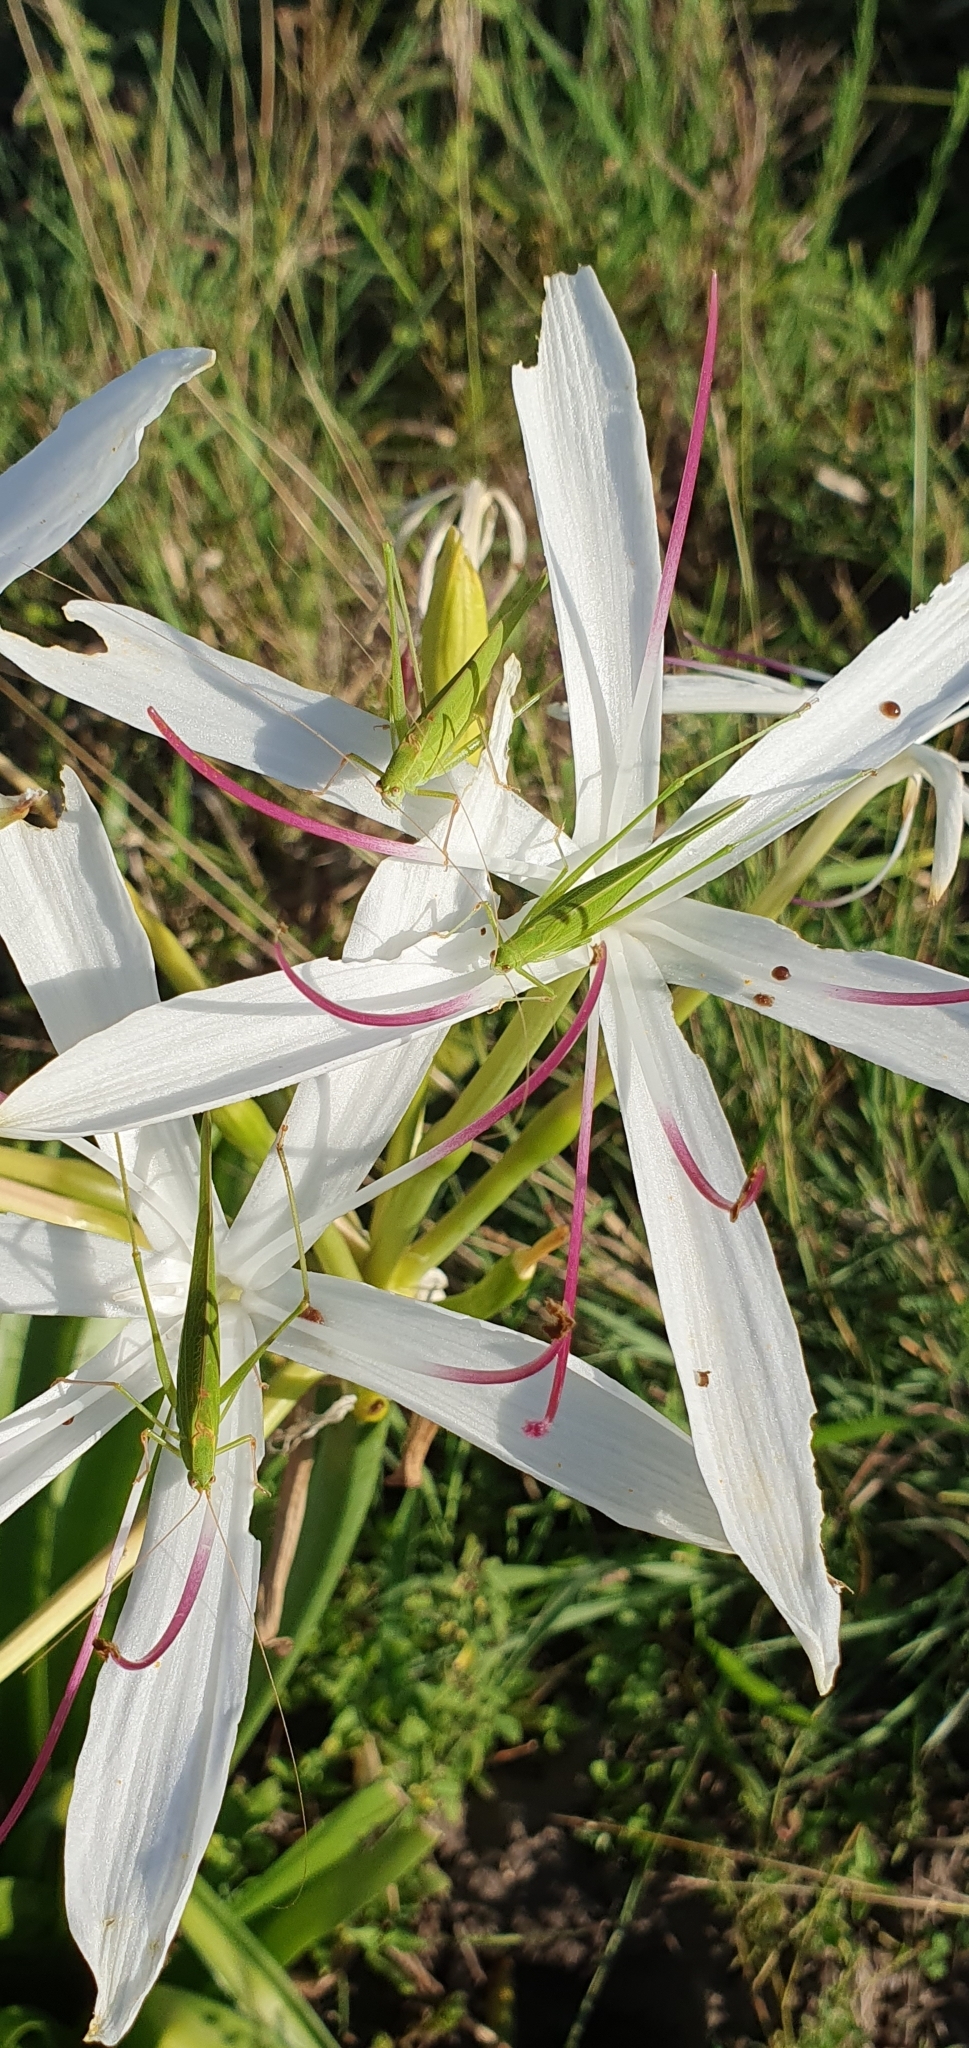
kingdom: Animalia
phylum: Arthropoda
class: Insecta
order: Orthoptera
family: Tettigoniidae
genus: Phaneroptera
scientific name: Phaneroptera gracilis
